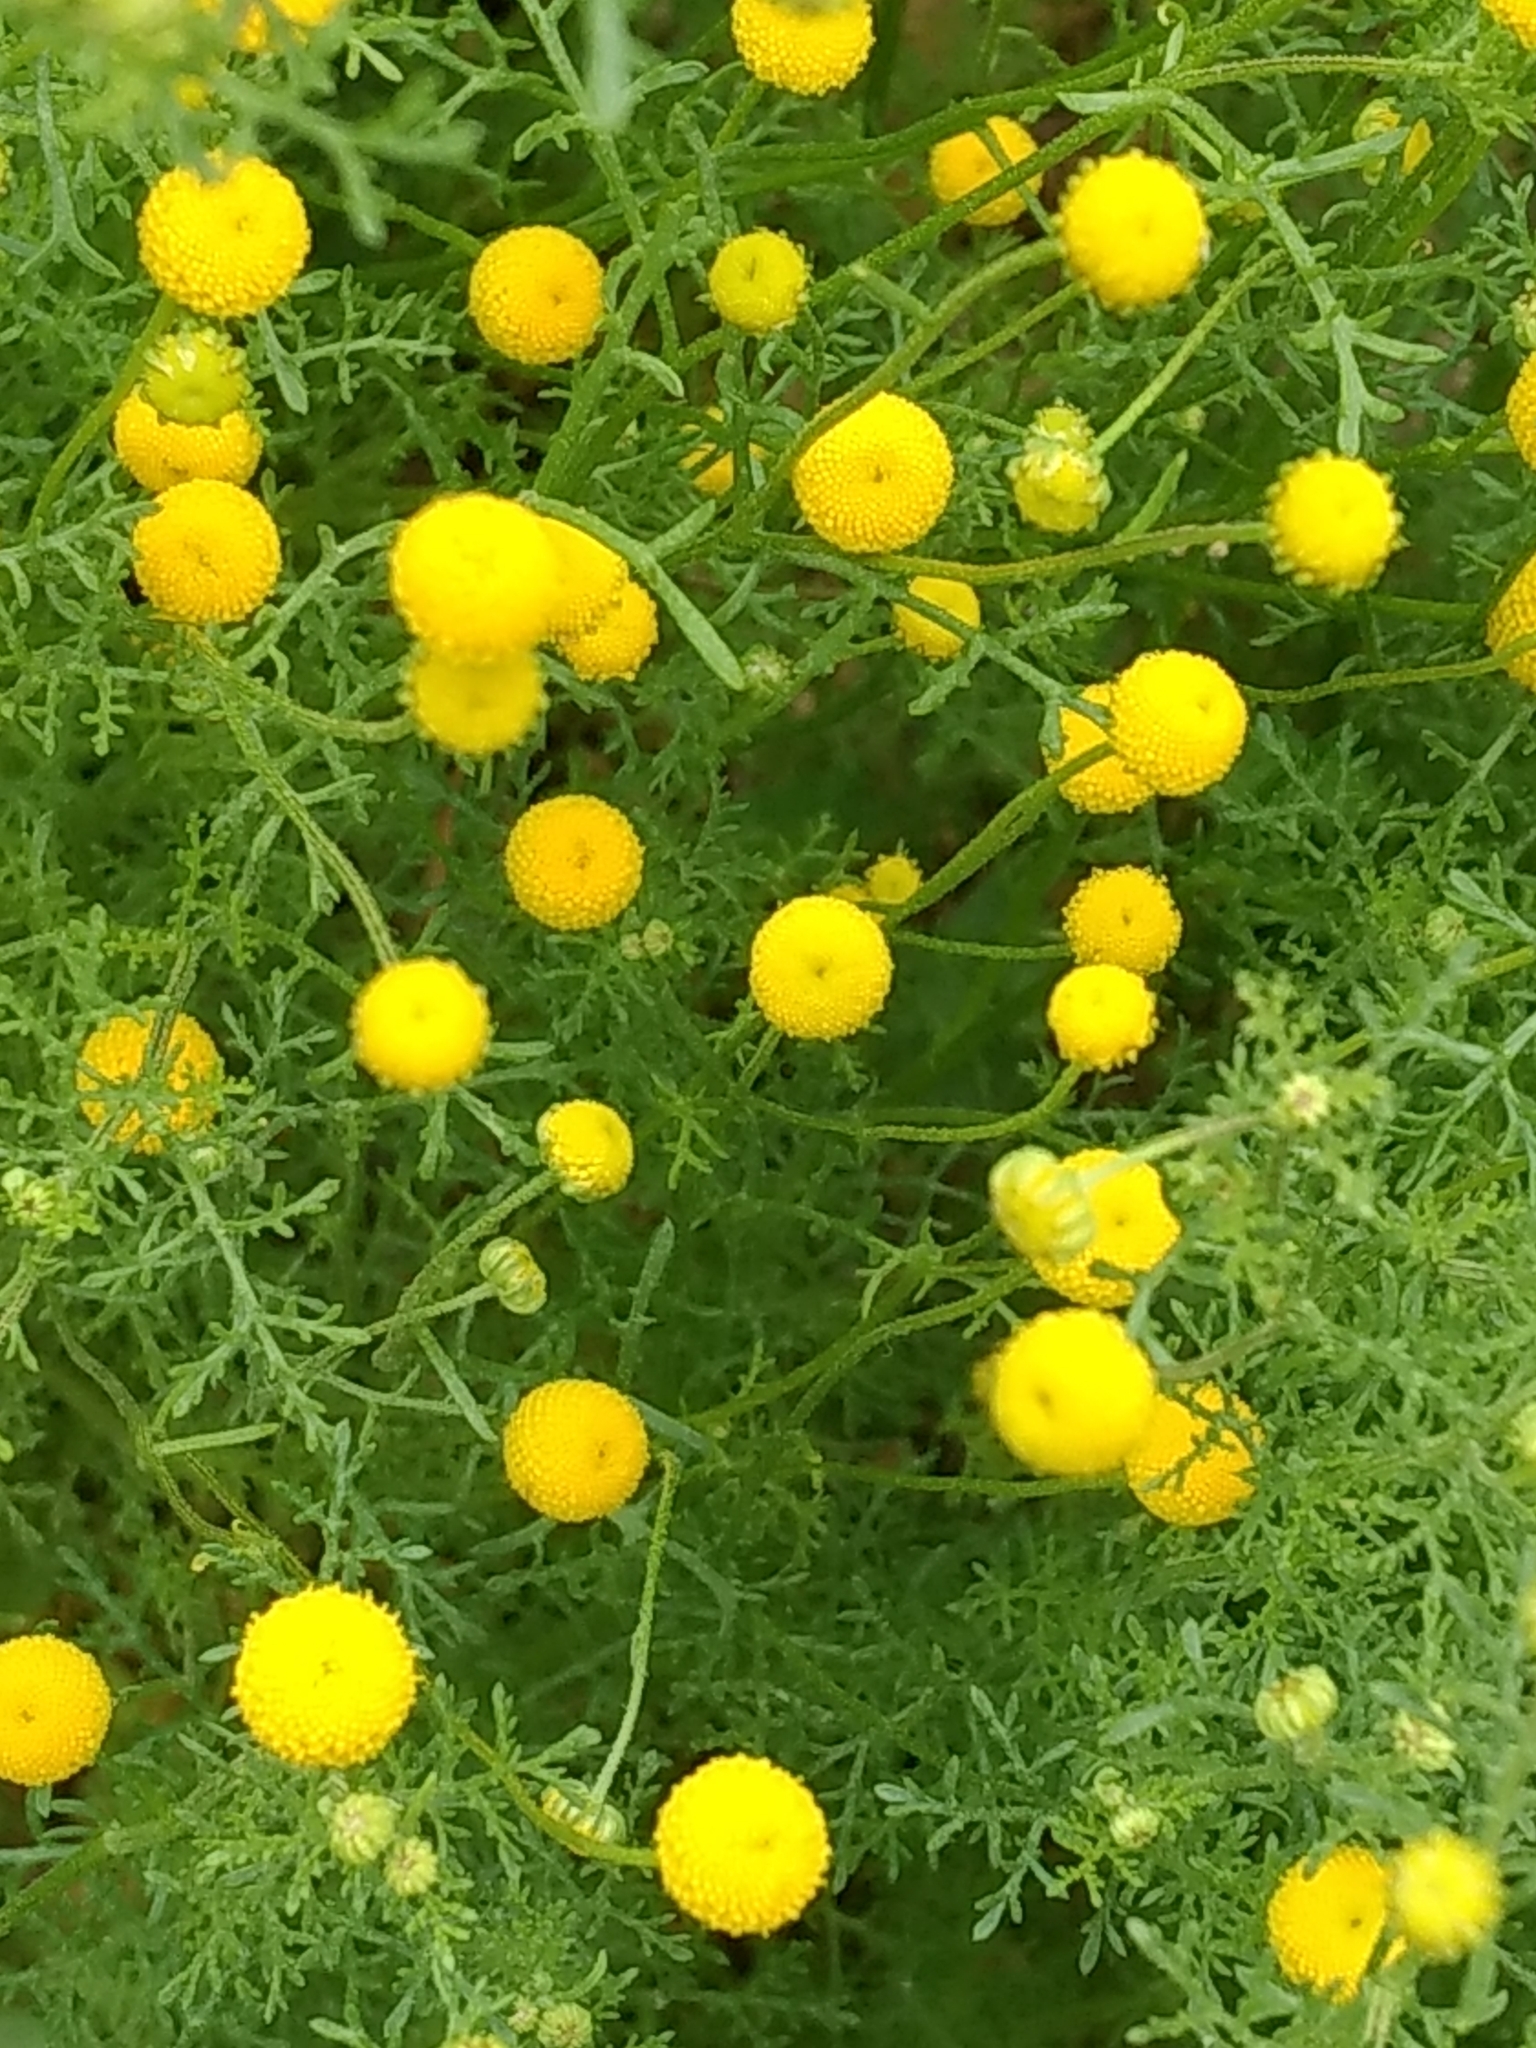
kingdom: Plantae
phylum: Tracheophyta
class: Magnoliopsida
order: Asterales
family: Asteraceae
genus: Oncosiphon
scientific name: Oncosiphon pilulifer
